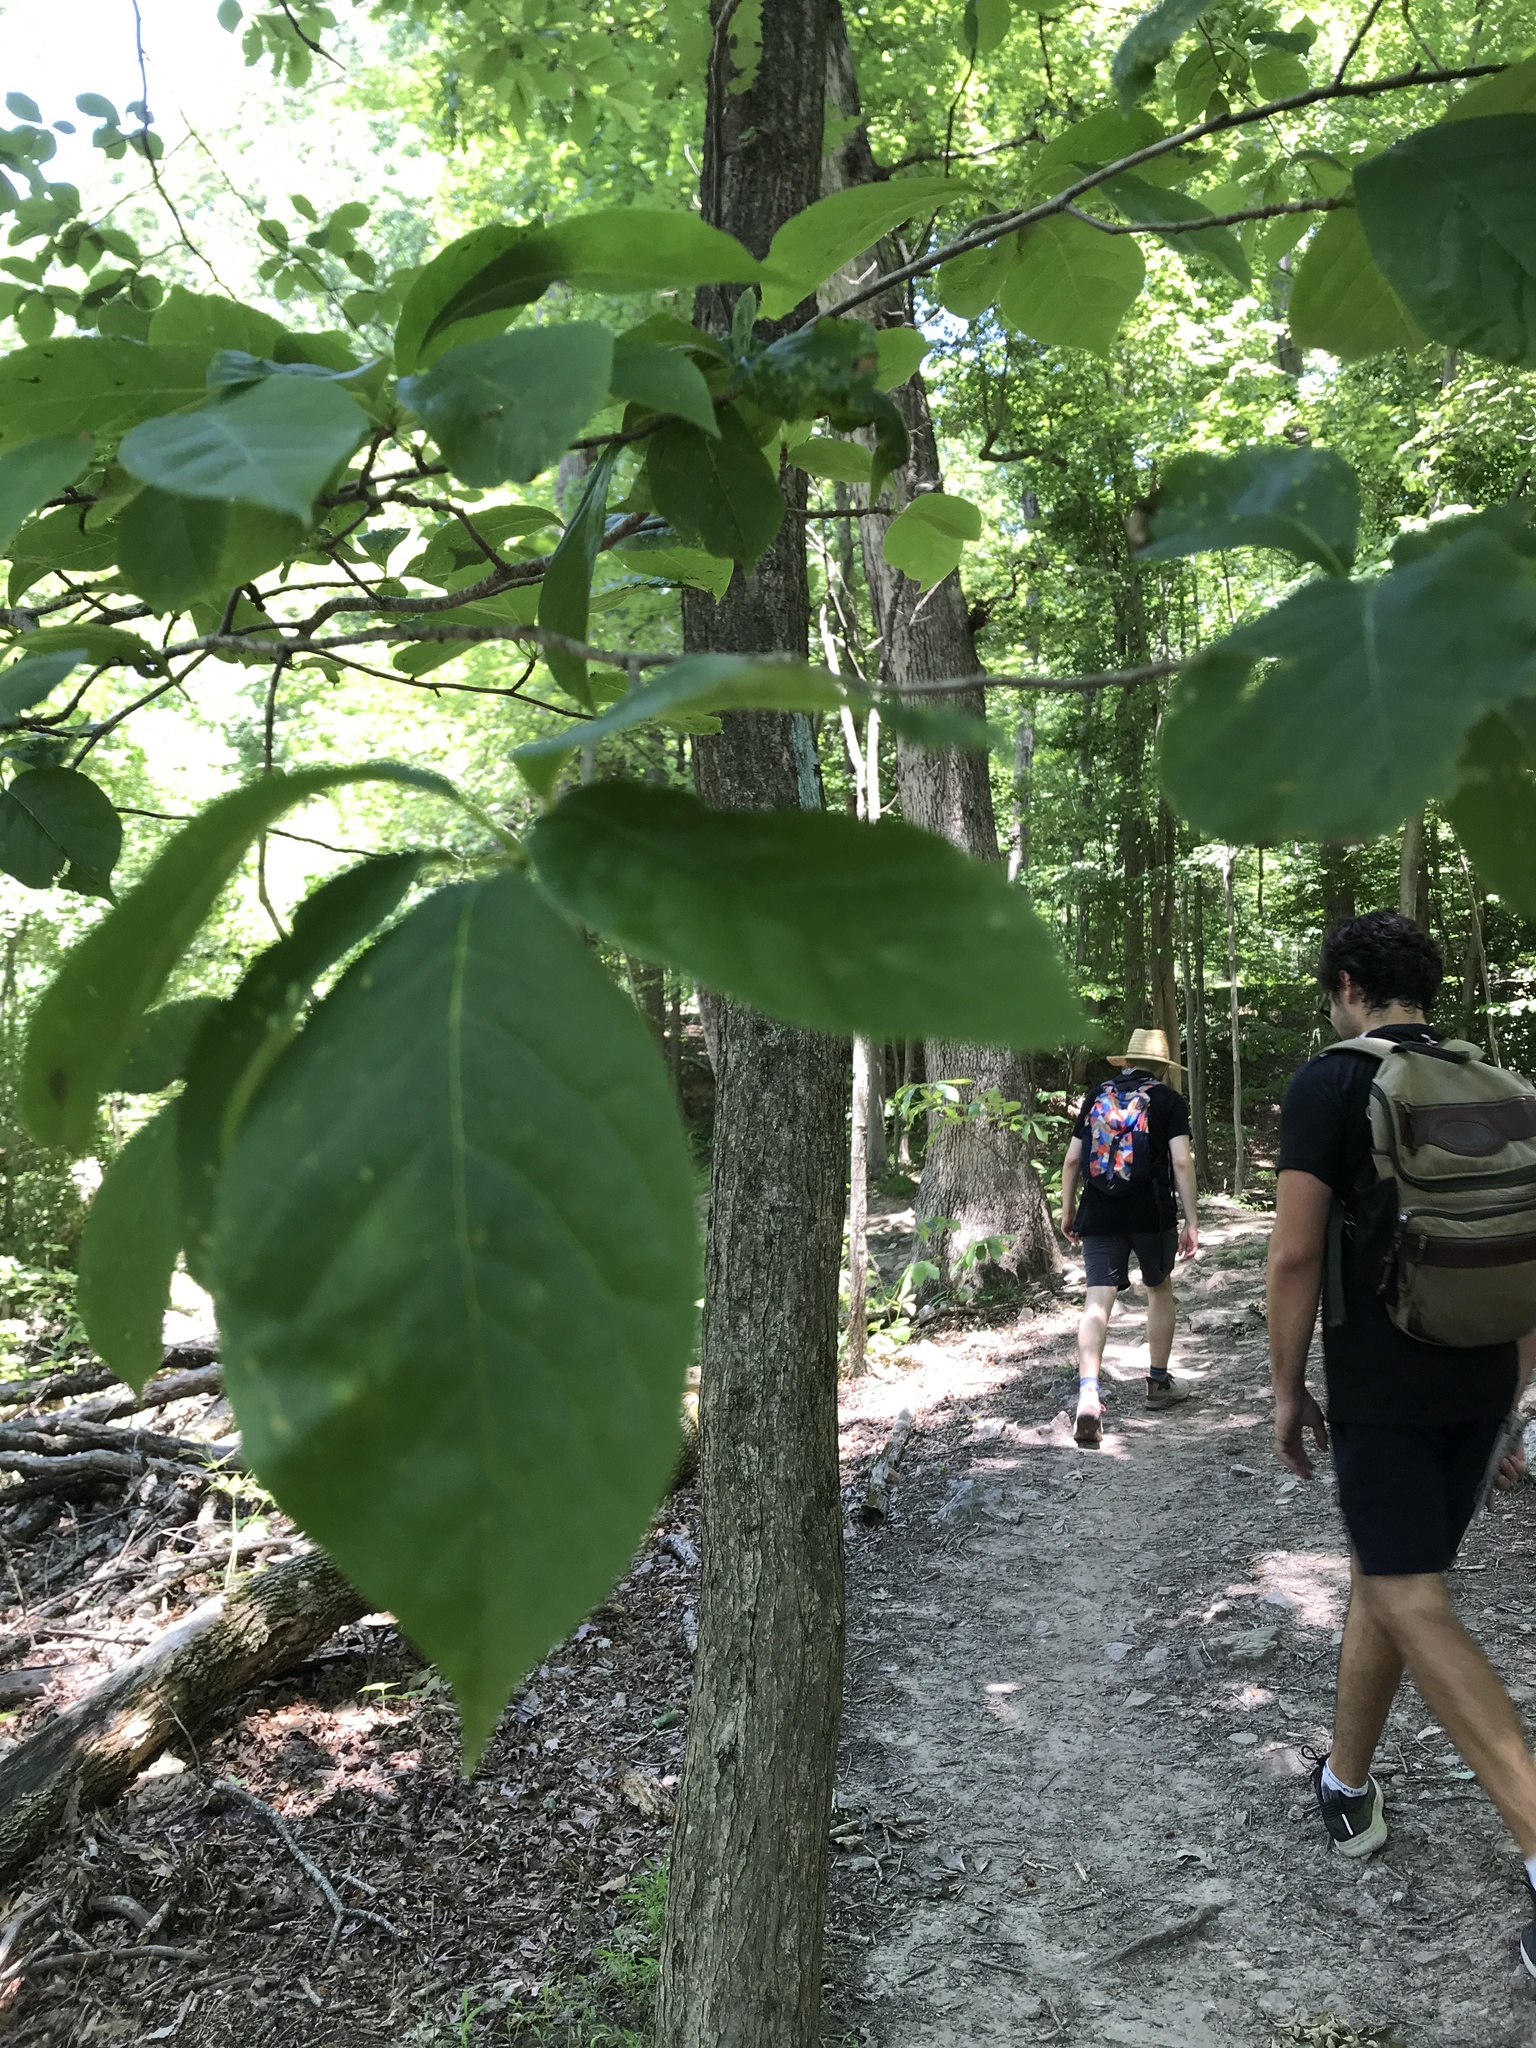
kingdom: Plantae
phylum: Tracheophyta
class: Magnoliopsida
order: Cornales
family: Nyssaceae
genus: Nyssa
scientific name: Nyssa sylvatica
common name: Black tupelo
